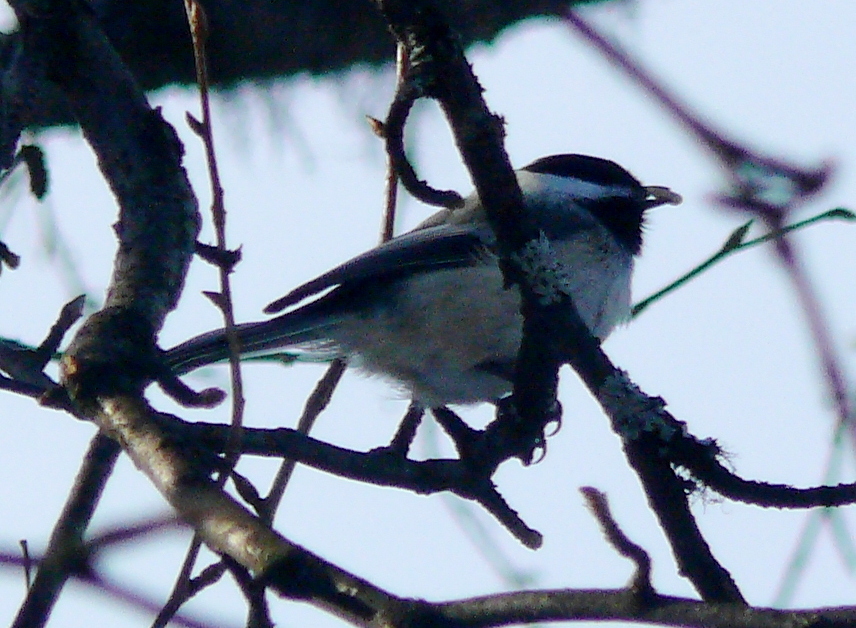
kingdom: Animalia
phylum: Chordata
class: Aves
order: Passeriformes
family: Paridae
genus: Poecile
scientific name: Poecile atricapillus
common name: Black-capped chickadee
